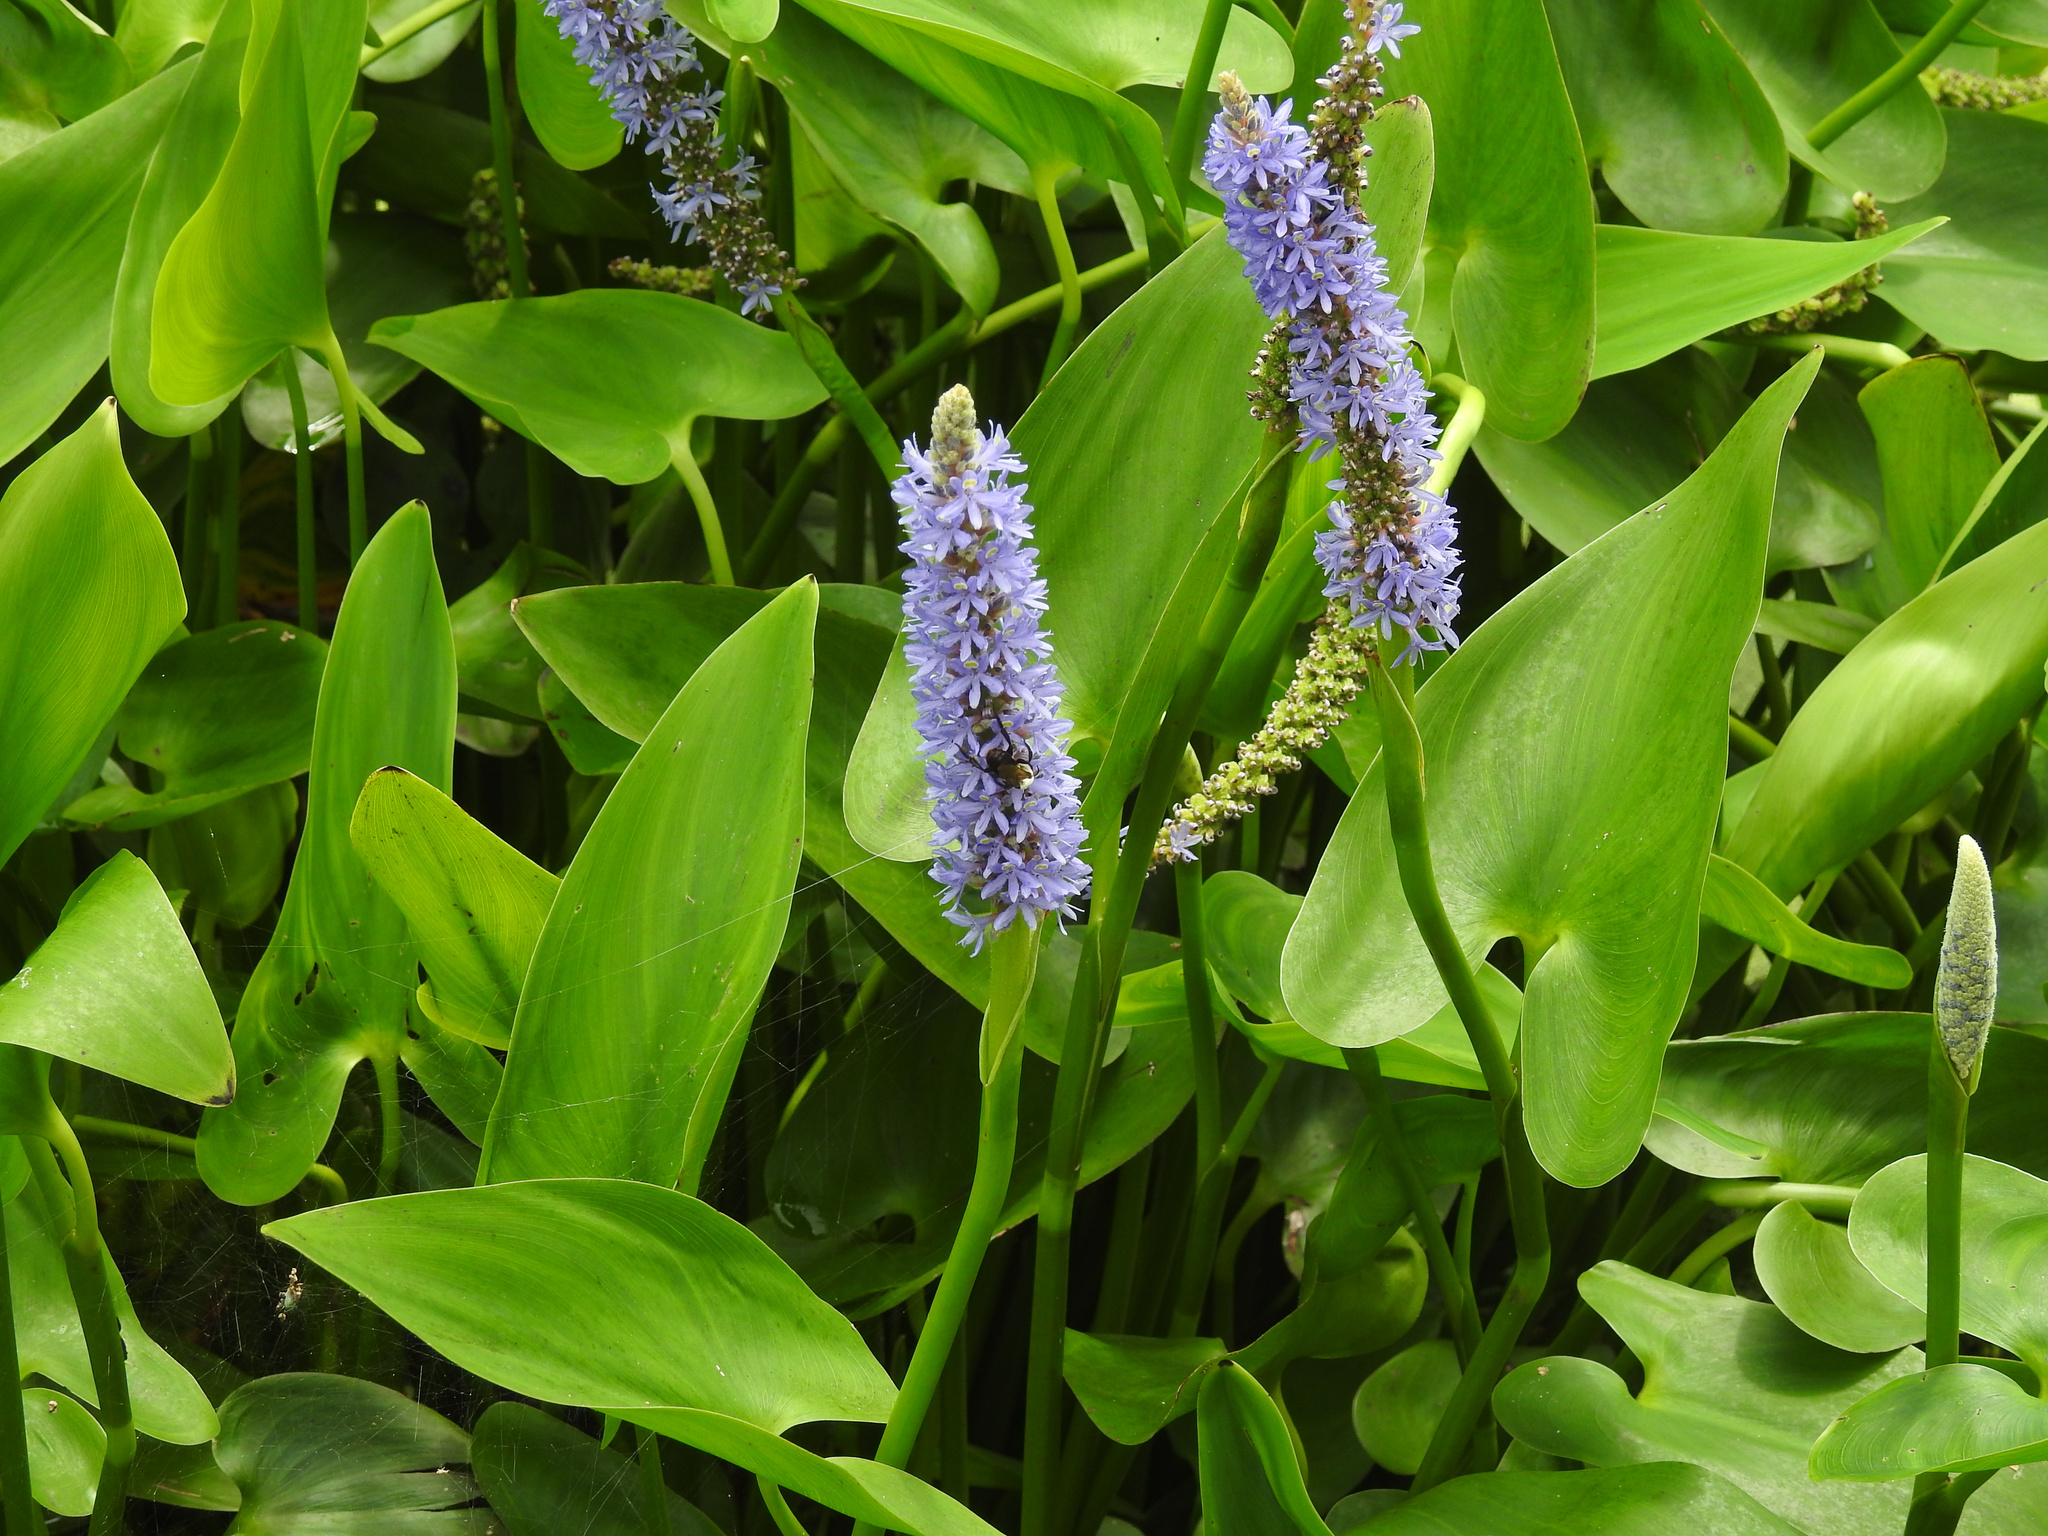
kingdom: Plantae
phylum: Tracheophyta
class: Liliopsida
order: Commelinales
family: Pontederiaceae
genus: Pontederia
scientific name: Pontederia cordata
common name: Pickerelweed
